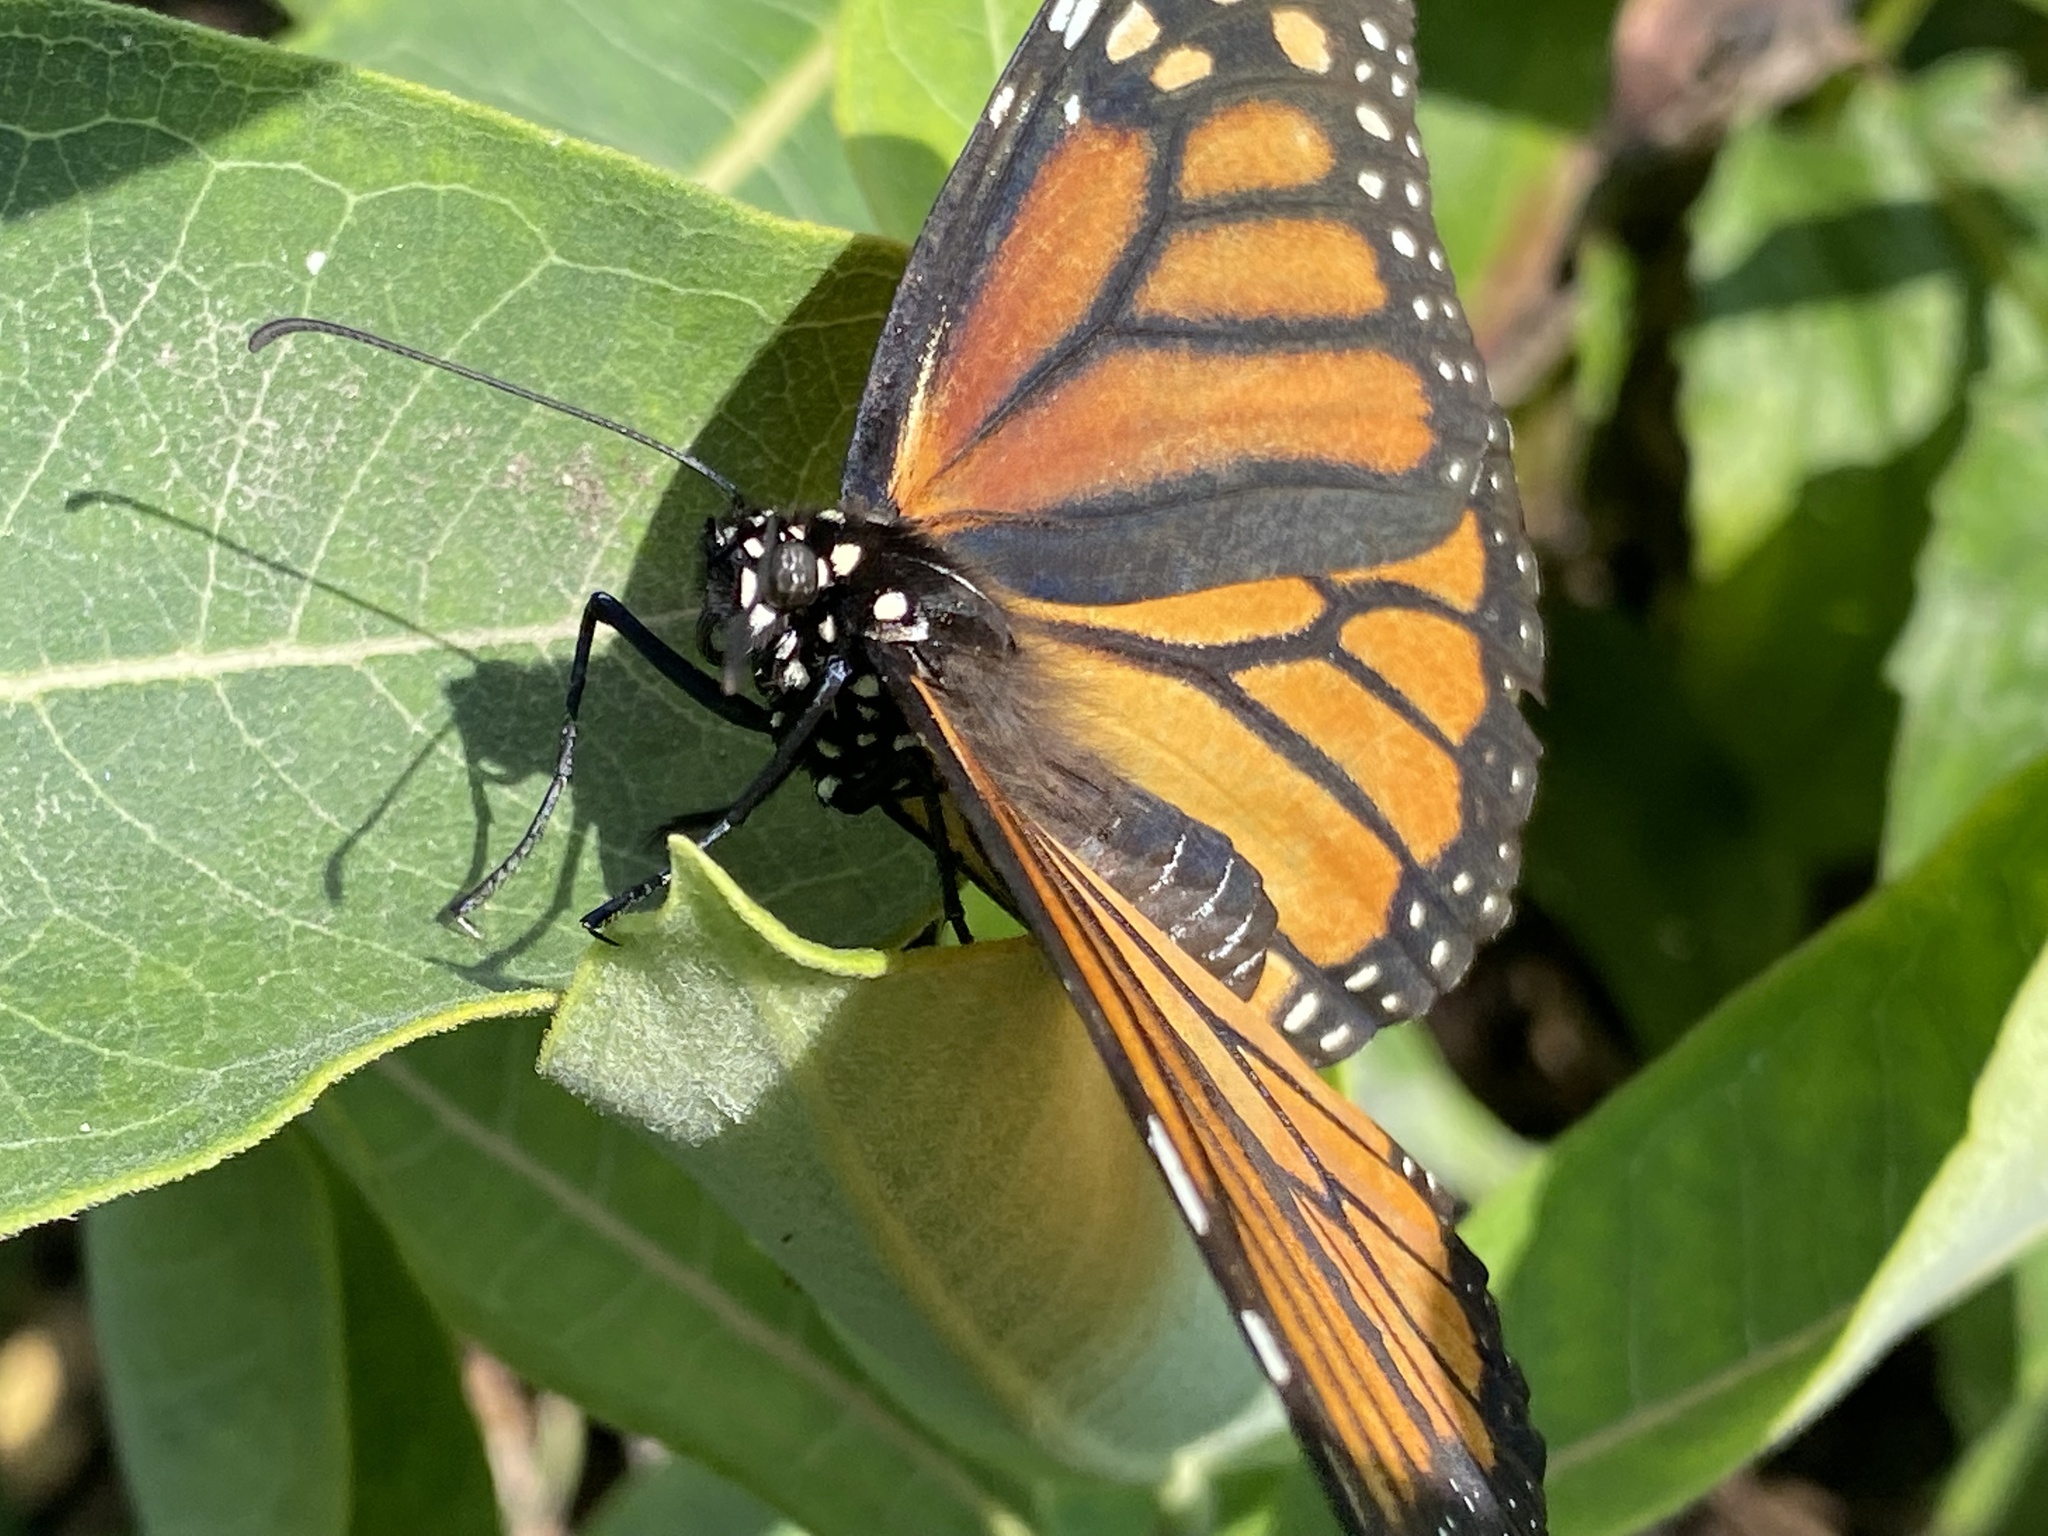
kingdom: Animalia
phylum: Arthropoda
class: Insecta
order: Lepidoptera
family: Nymphalidae
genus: Danaus
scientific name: Danaus plexippus
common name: Monarch
